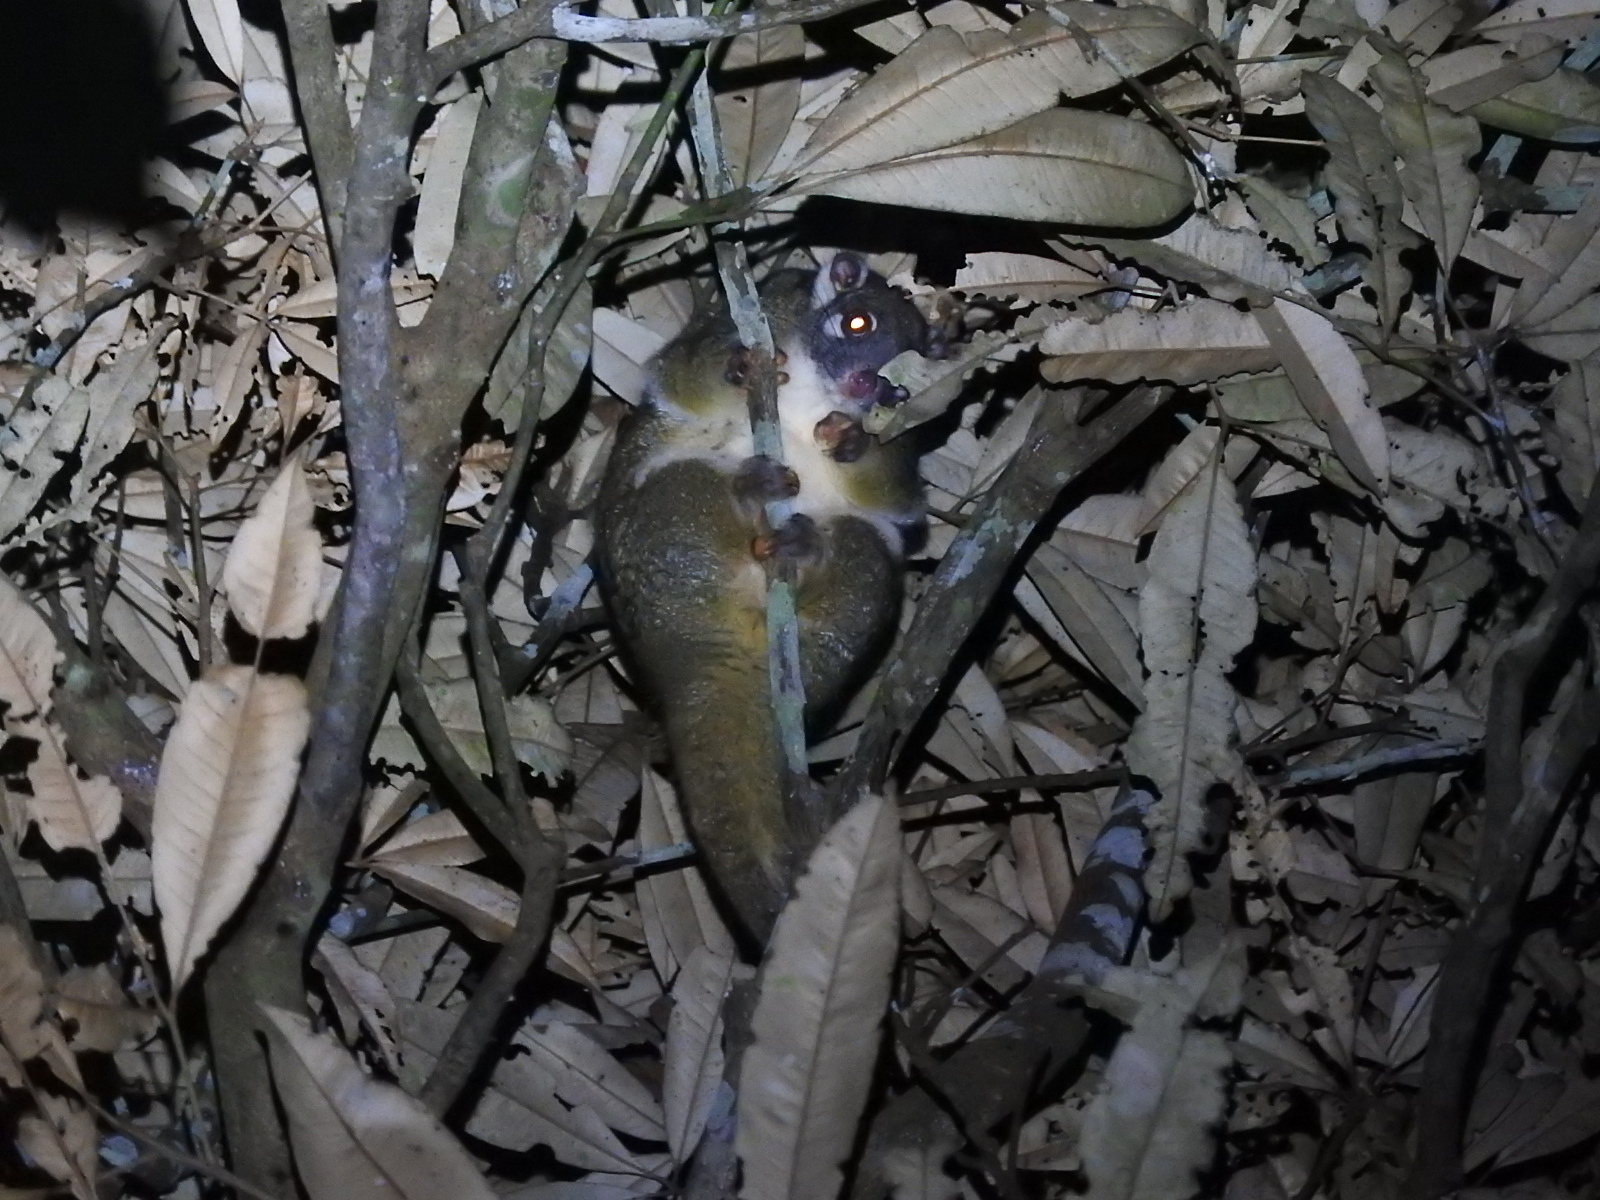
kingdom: Animalia
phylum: Chordata
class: Mammalia
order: Diprotodontia
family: Pseudocheiridae
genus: Pseudochirops
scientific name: Pseudochirops archeri
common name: Green ringtail
